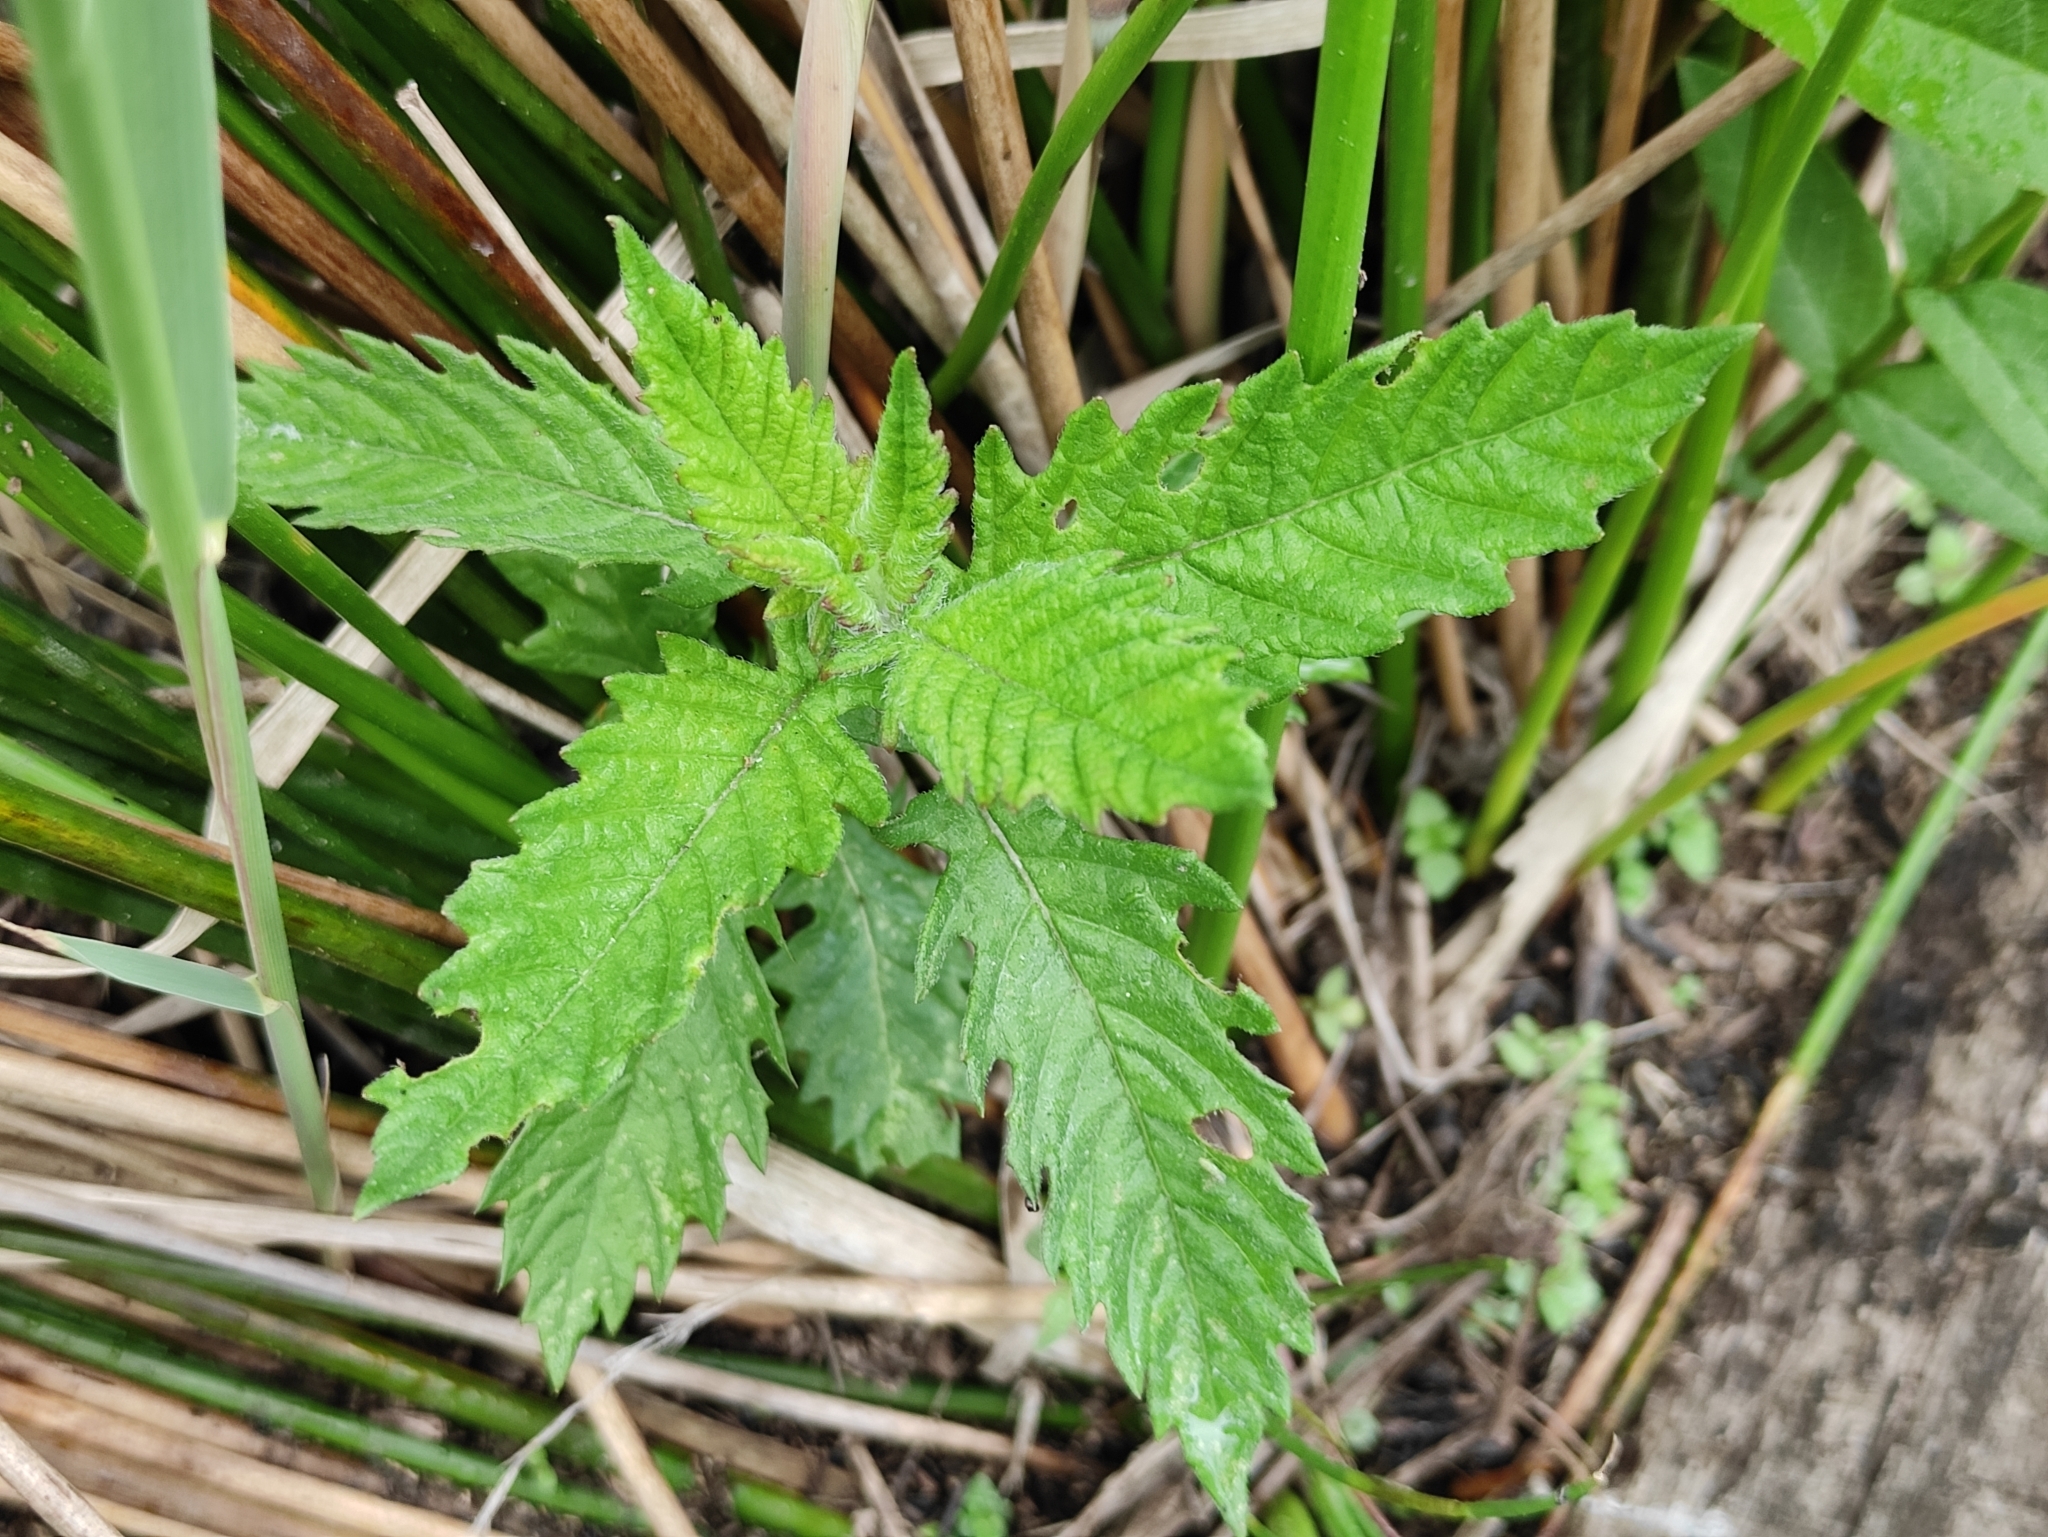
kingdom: Plantae
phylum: Tracheophyta
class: Magnoliopsida
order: Lamiales
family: Lamiaceae
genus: Lycopus
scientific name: Lycopus europaeus
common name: European bugleweed
